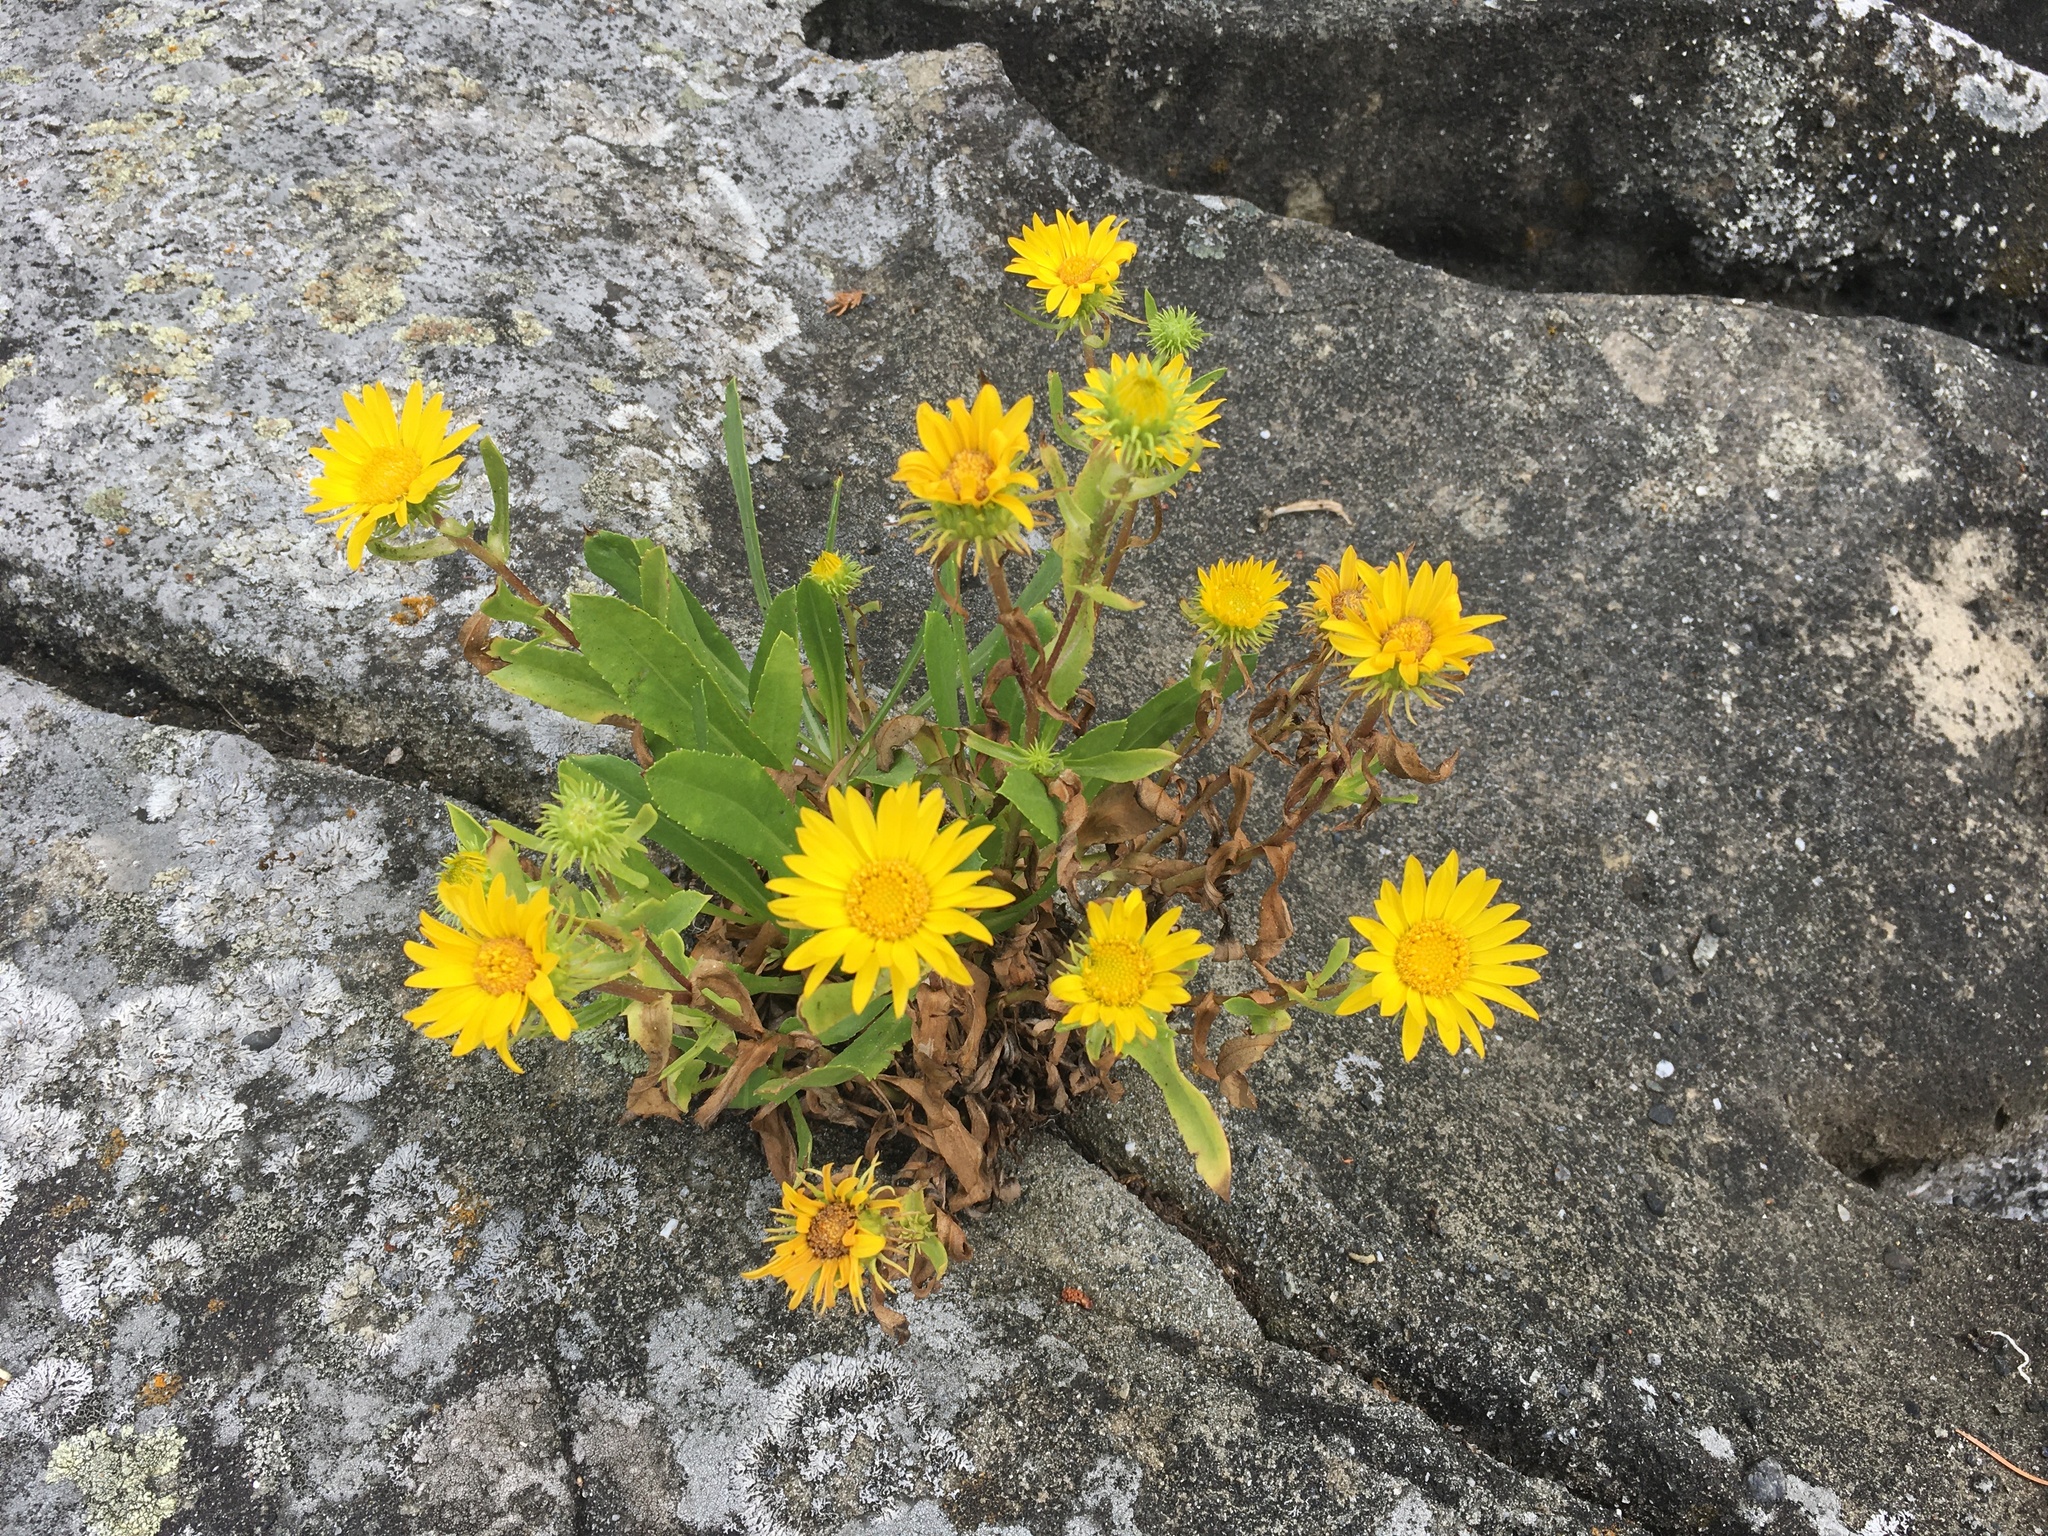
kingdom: Plantae
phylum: Tracheophyta
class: Magnoliopsida
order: Asterales
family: Asteraceae
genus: Grindelia
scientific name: Grindelia hirsutula
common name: Hairy gumweed
